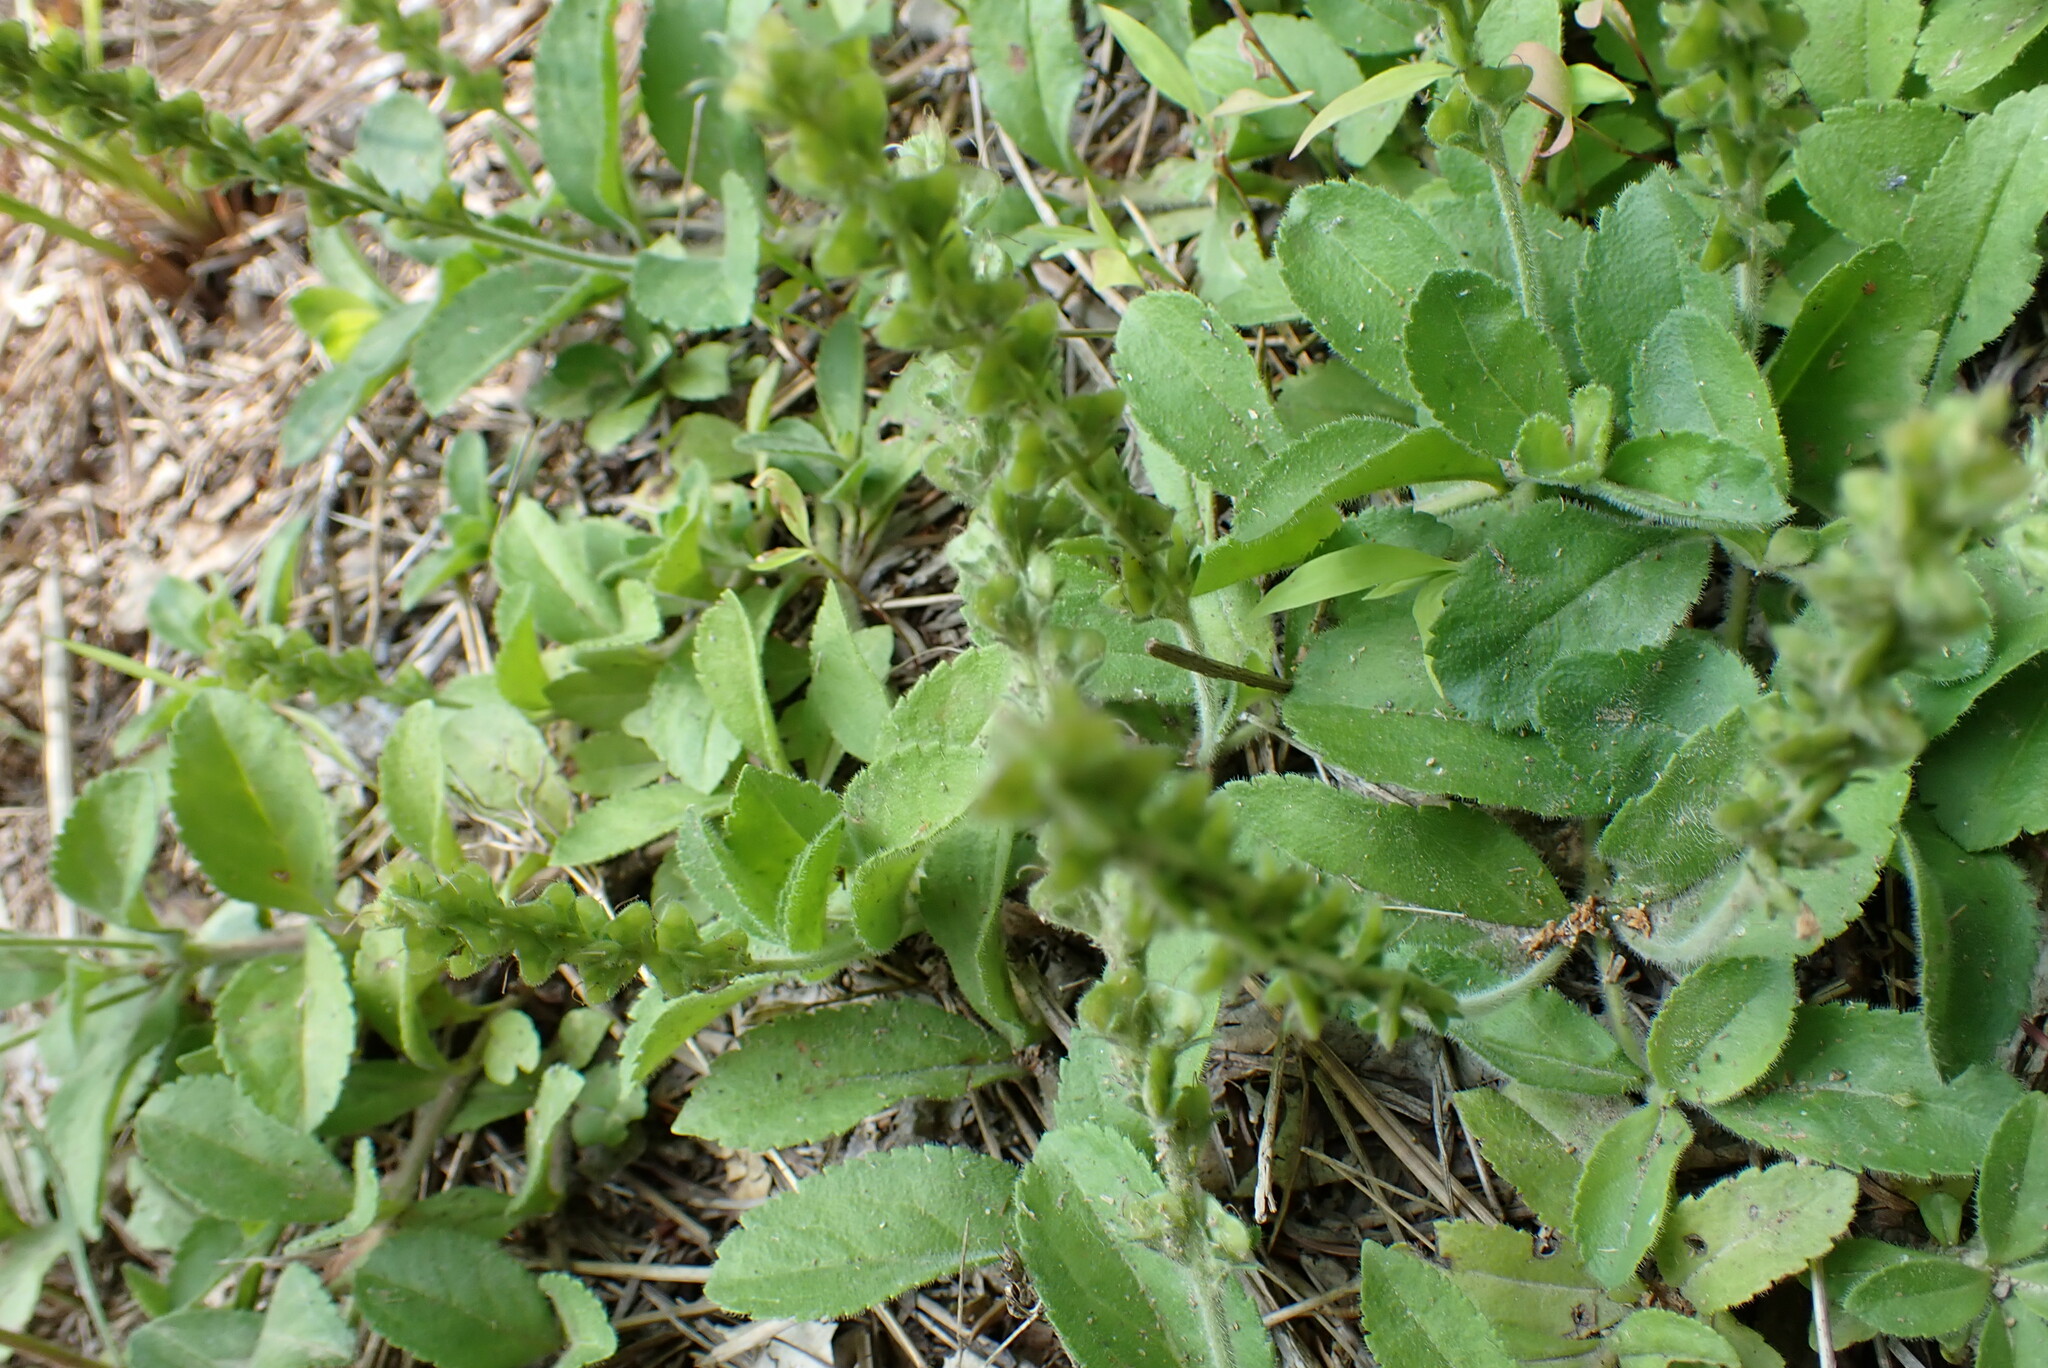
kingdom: Plantae
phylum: Tracheophyta
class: Magnoliopsida
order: Lamiales
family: Plantaginaceae
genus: Veronica
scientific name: Veronica officinalis
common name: Common speedwell
